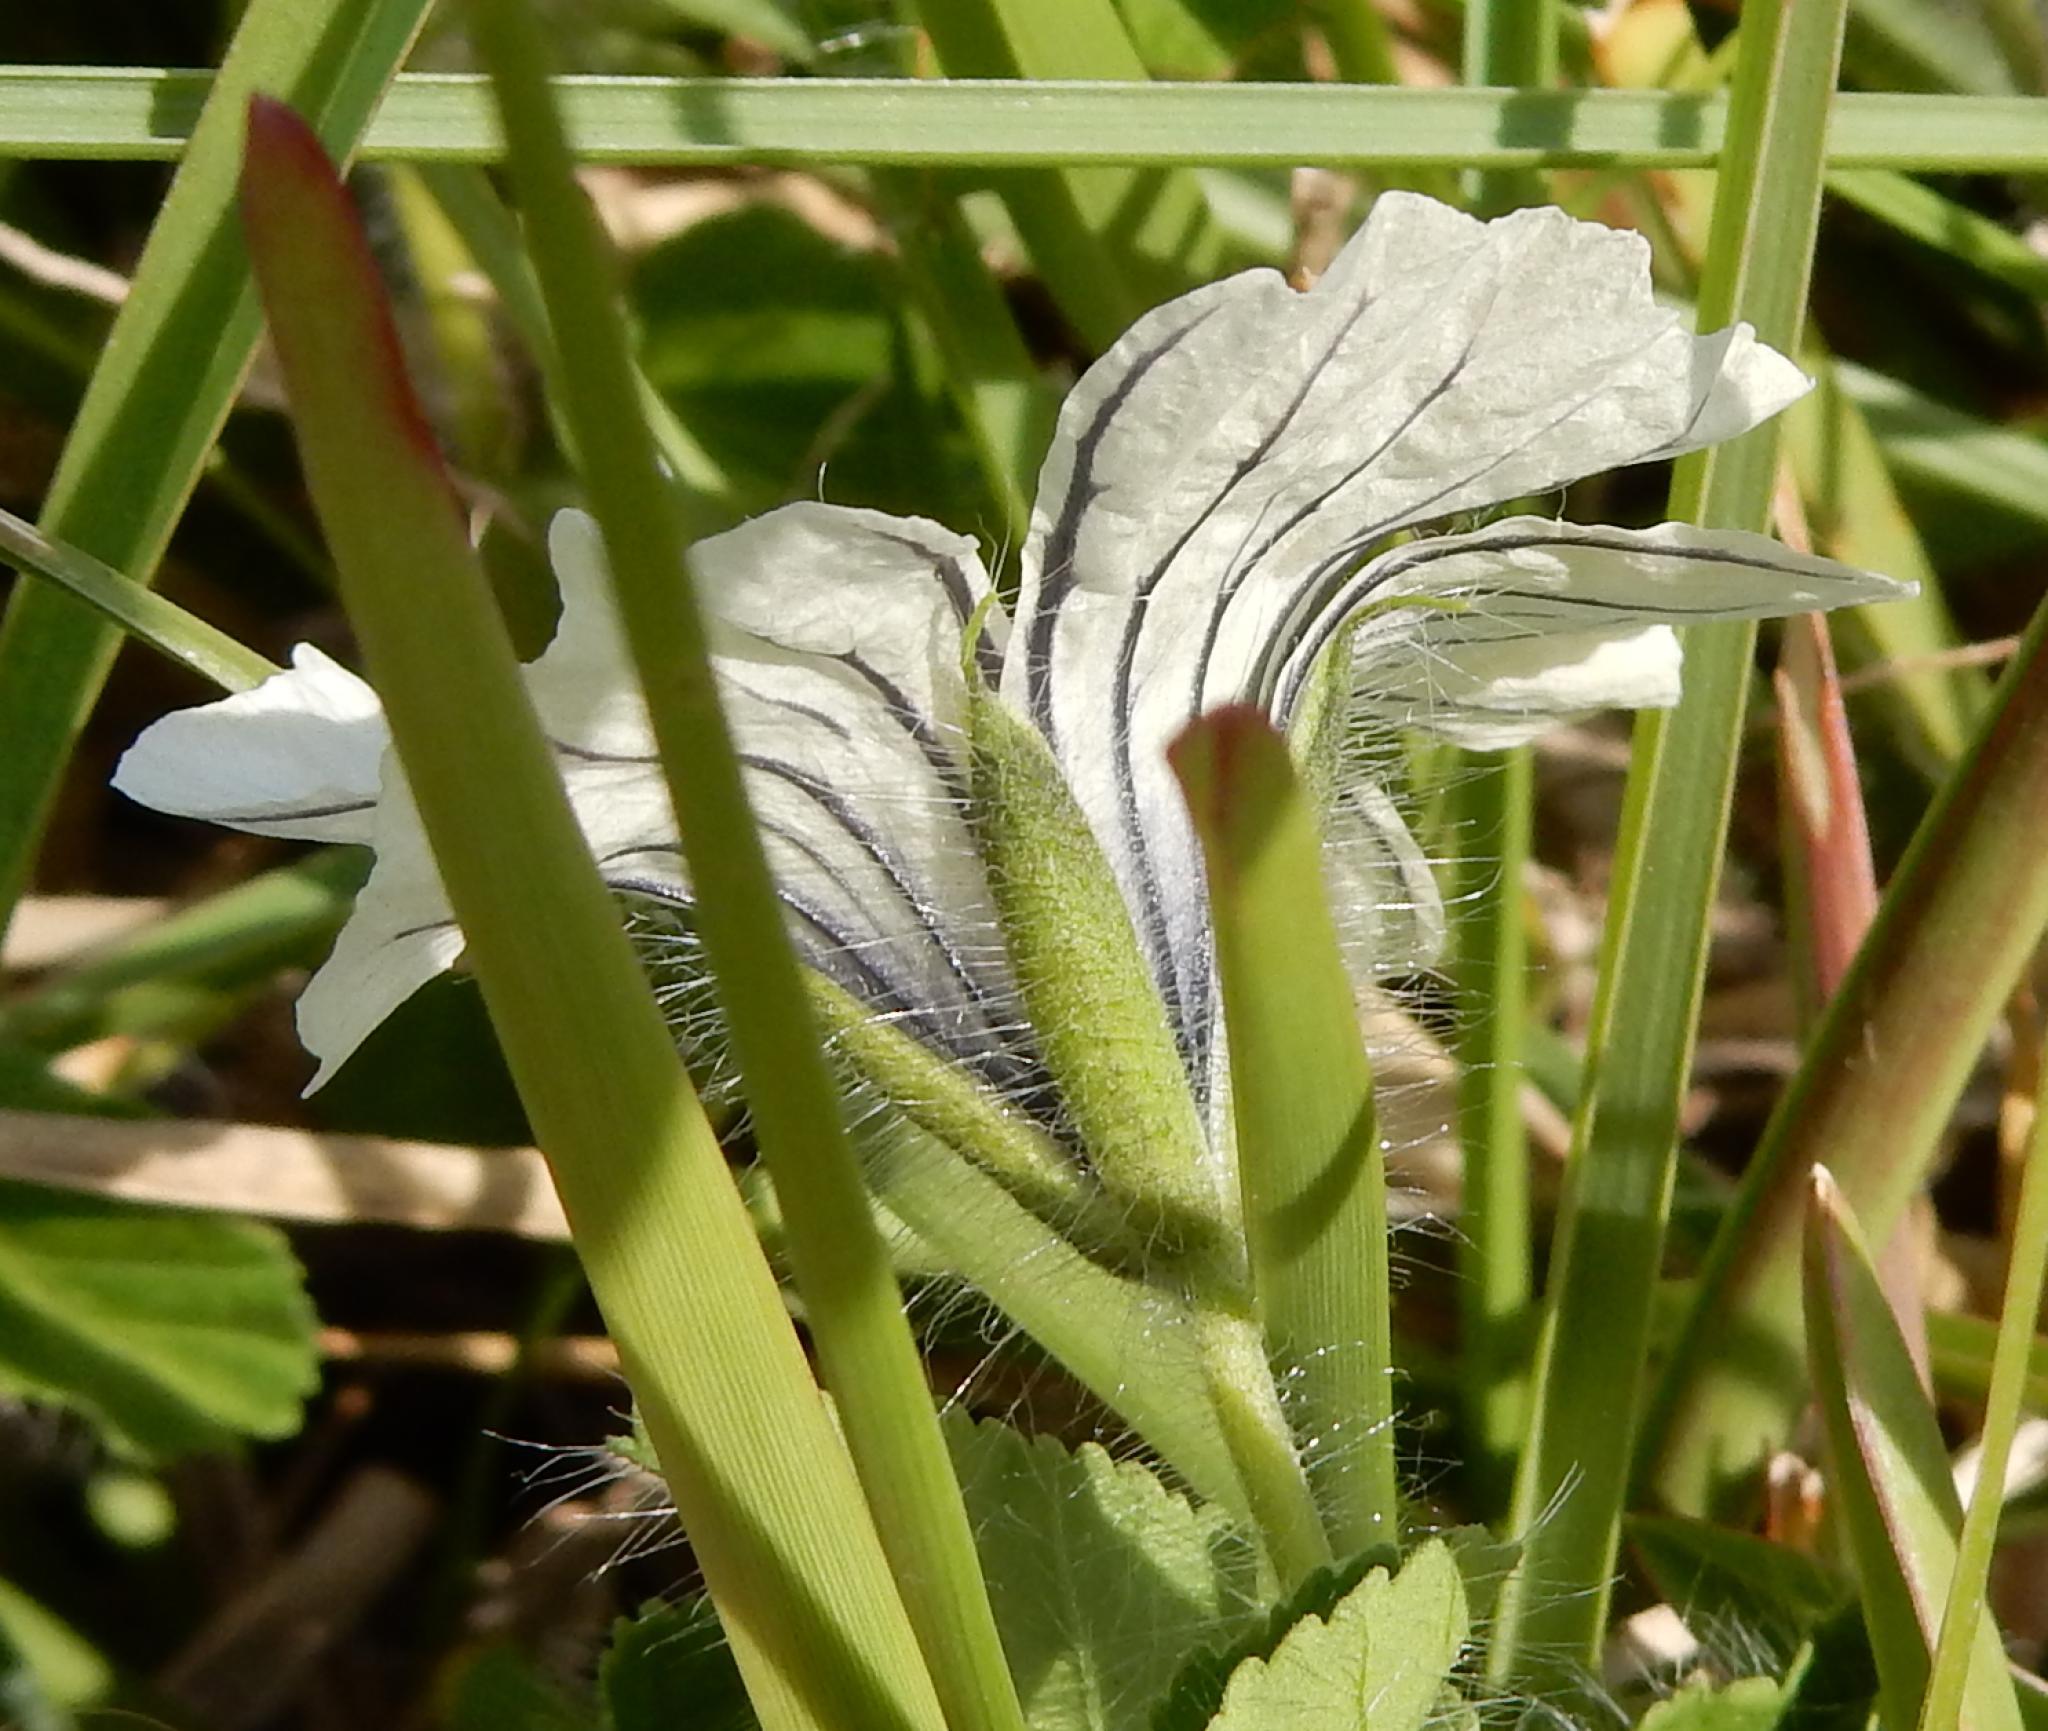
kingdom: Plantae
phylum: Tracheophyta
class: Magnoliopsida
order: Geraniales
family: Geraniaceae
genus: Monsonia
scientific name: Monsonia emarginata
